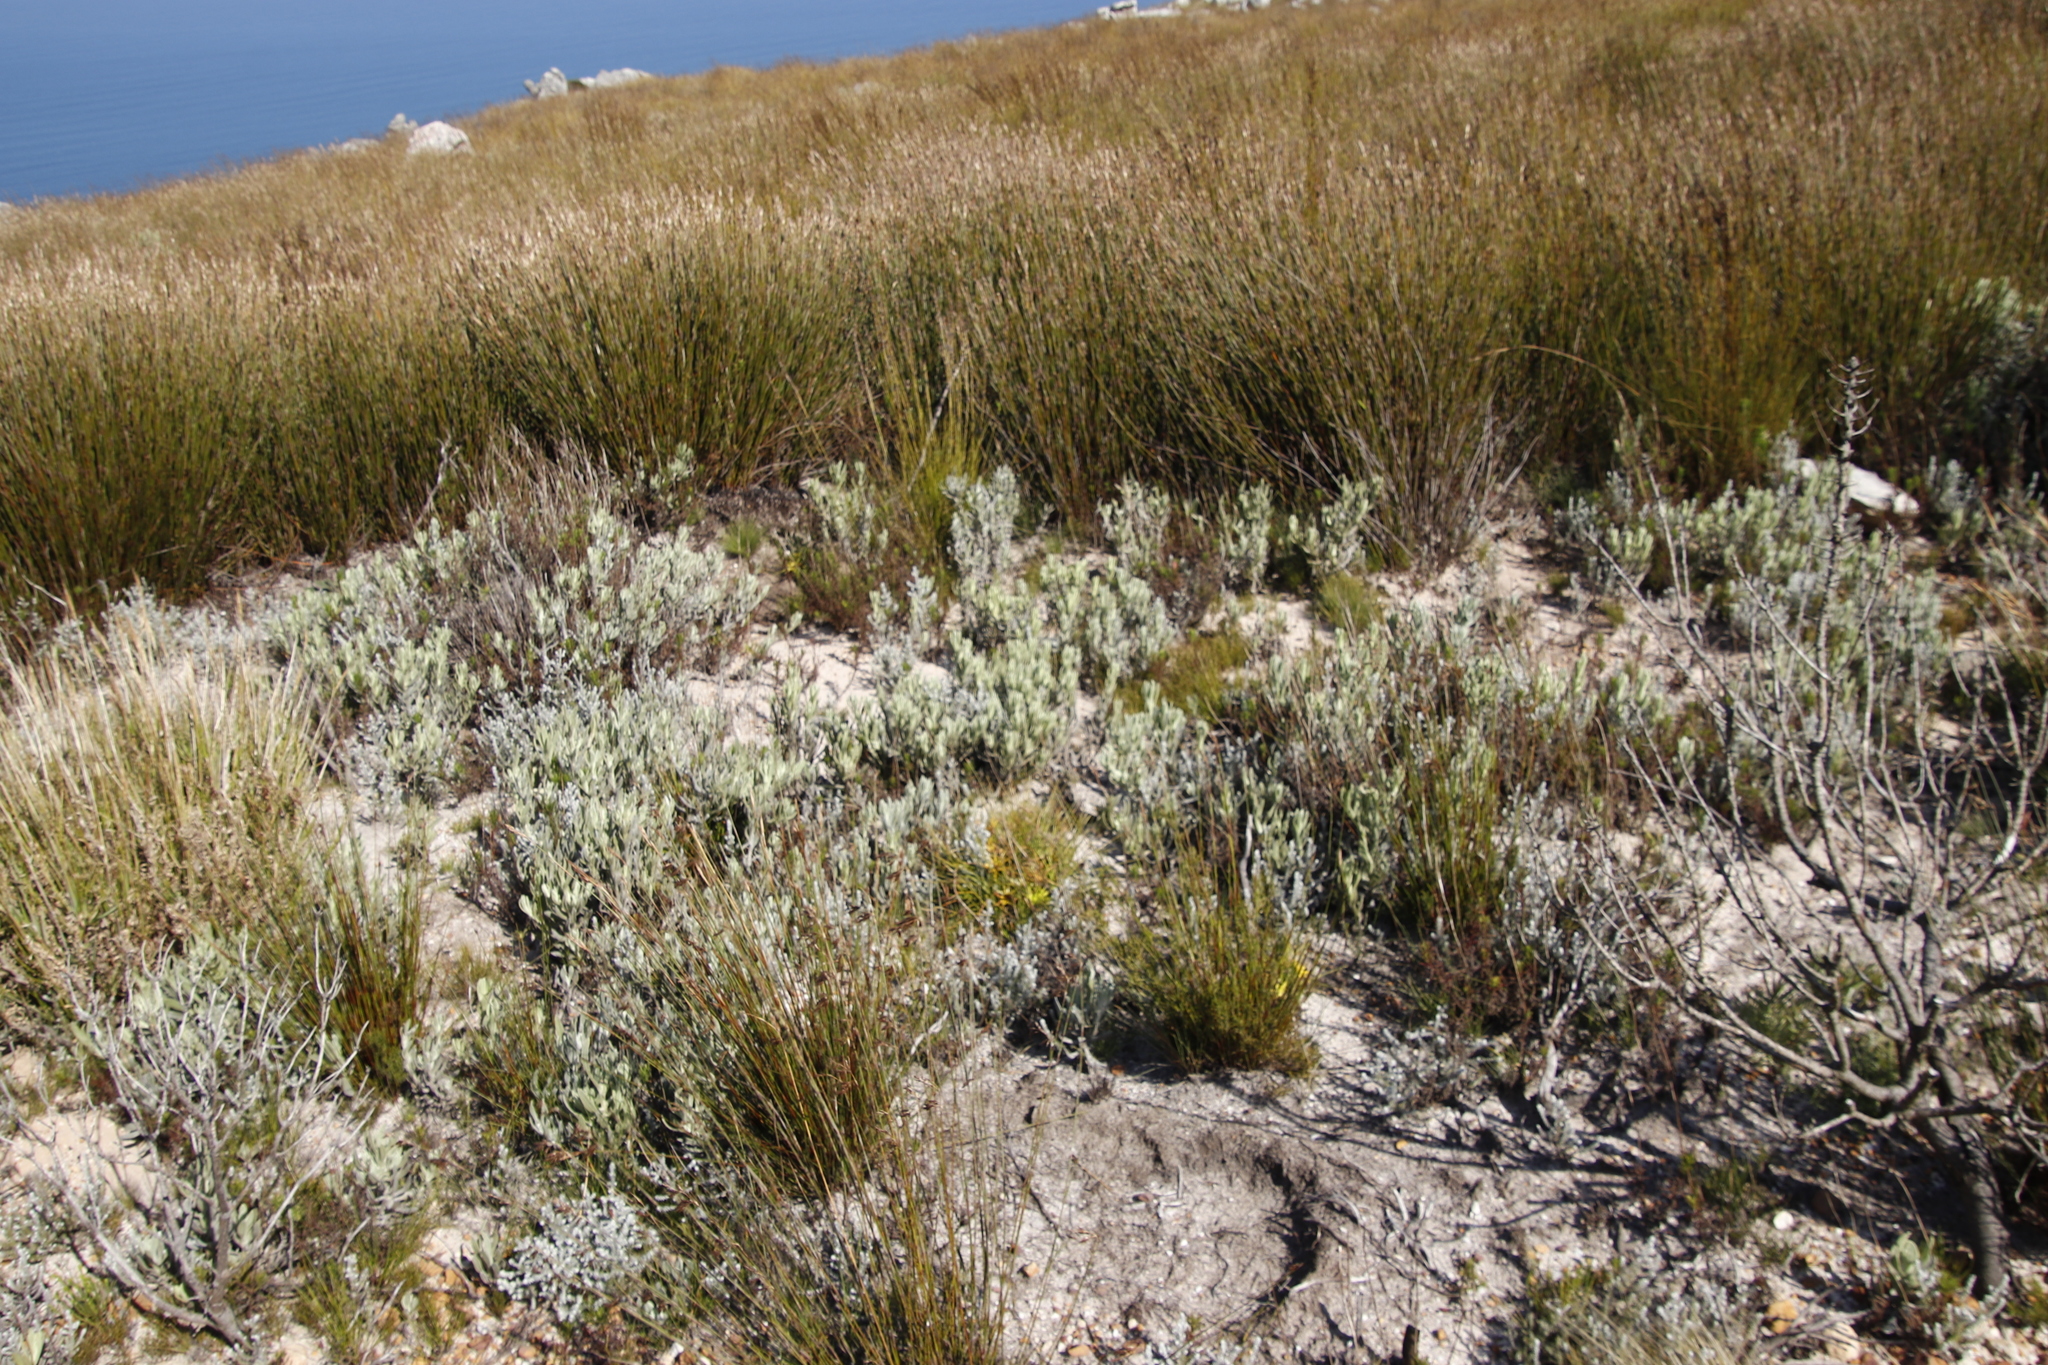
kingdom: Plantae
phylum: Tracheophyta
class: Magnoliopsida
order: Asterales
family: Asteraceae
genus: Syncarpha
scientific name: Syncarpha vestita
